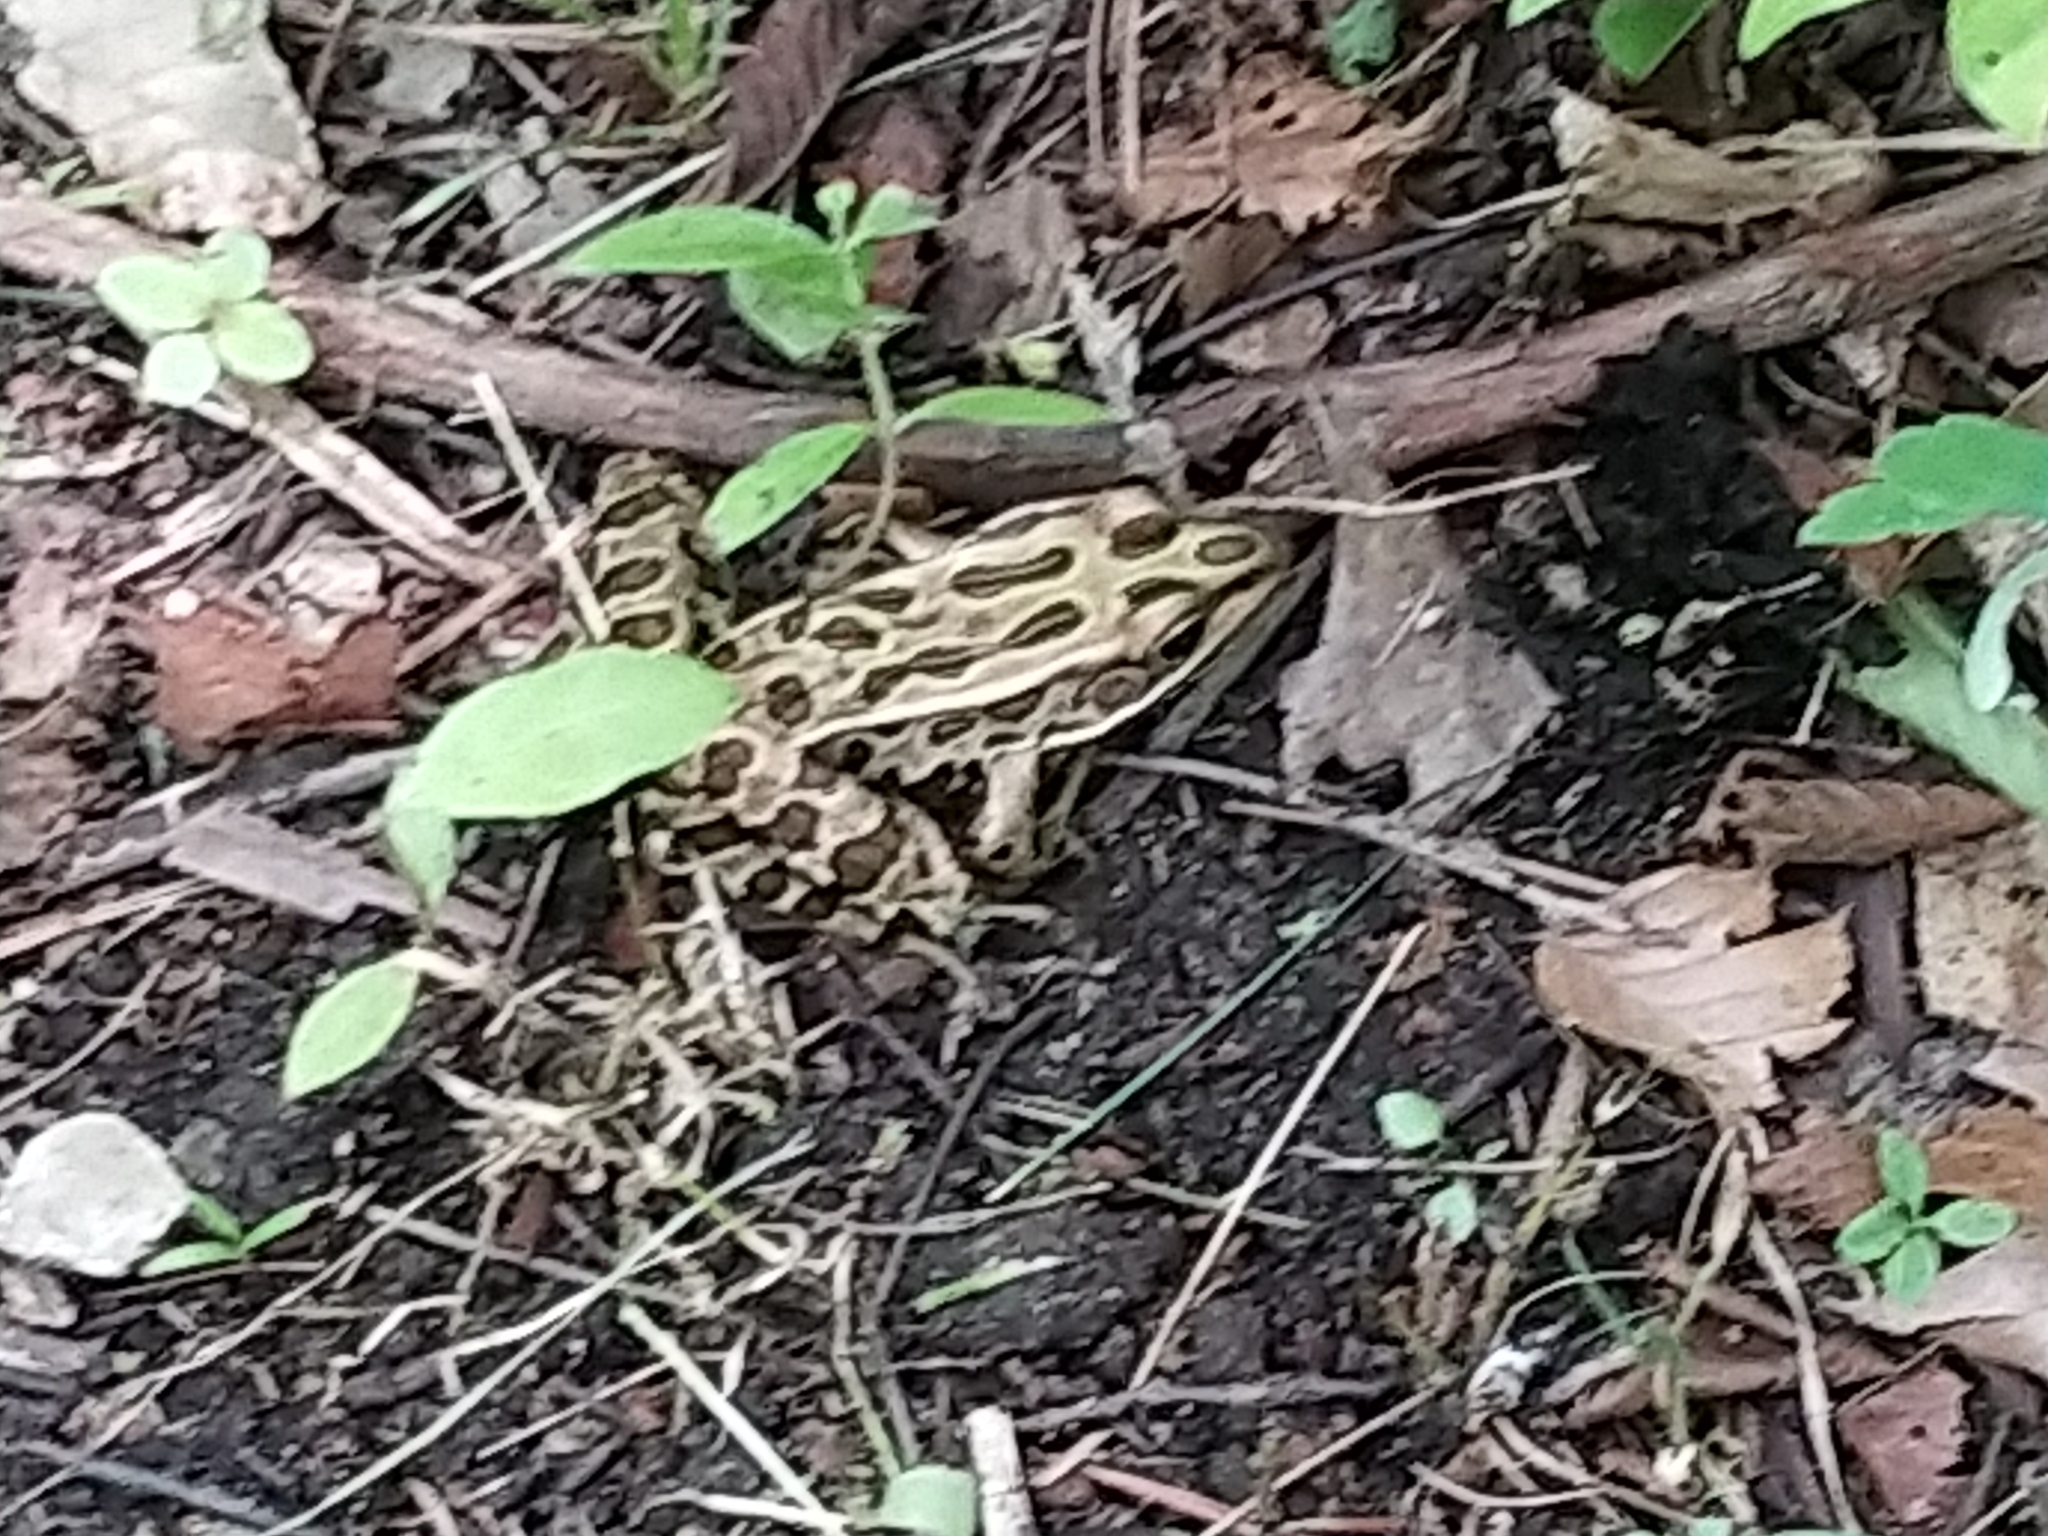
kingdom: Animalia
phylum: Chordata
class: Amphibia
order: Anura
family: Ranidae
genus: Lithobates
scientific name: Lithobates pipiens
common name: Northern leopard frog
